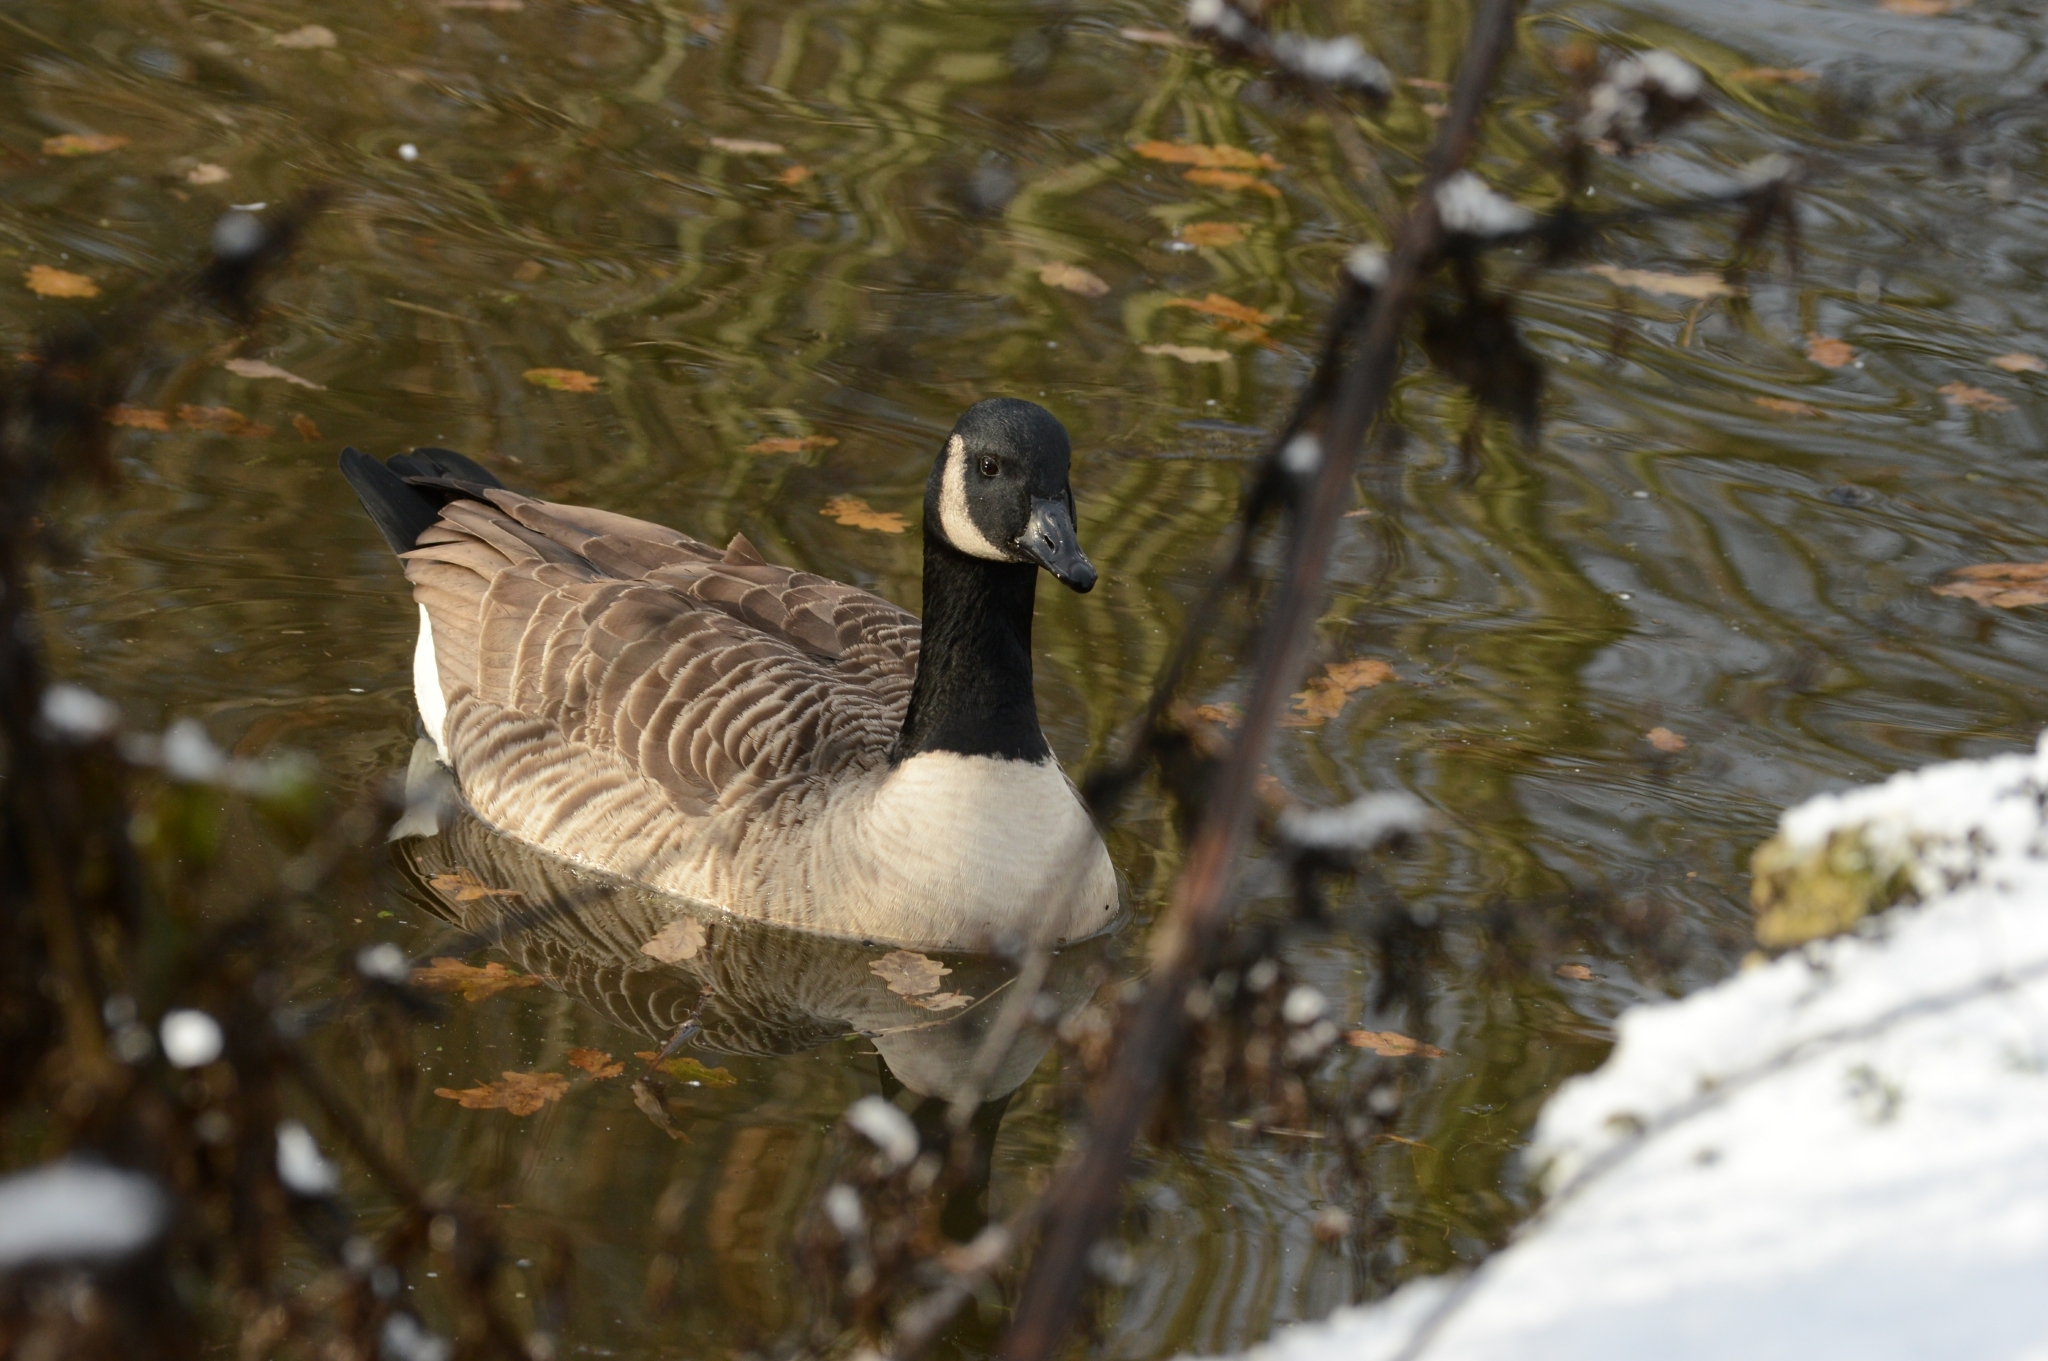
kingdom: Animalia
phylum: Chordata
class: Aves
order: Anseriformes
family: Anatidae
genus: Branta
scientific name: Branta canadensis
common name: Canada goose
